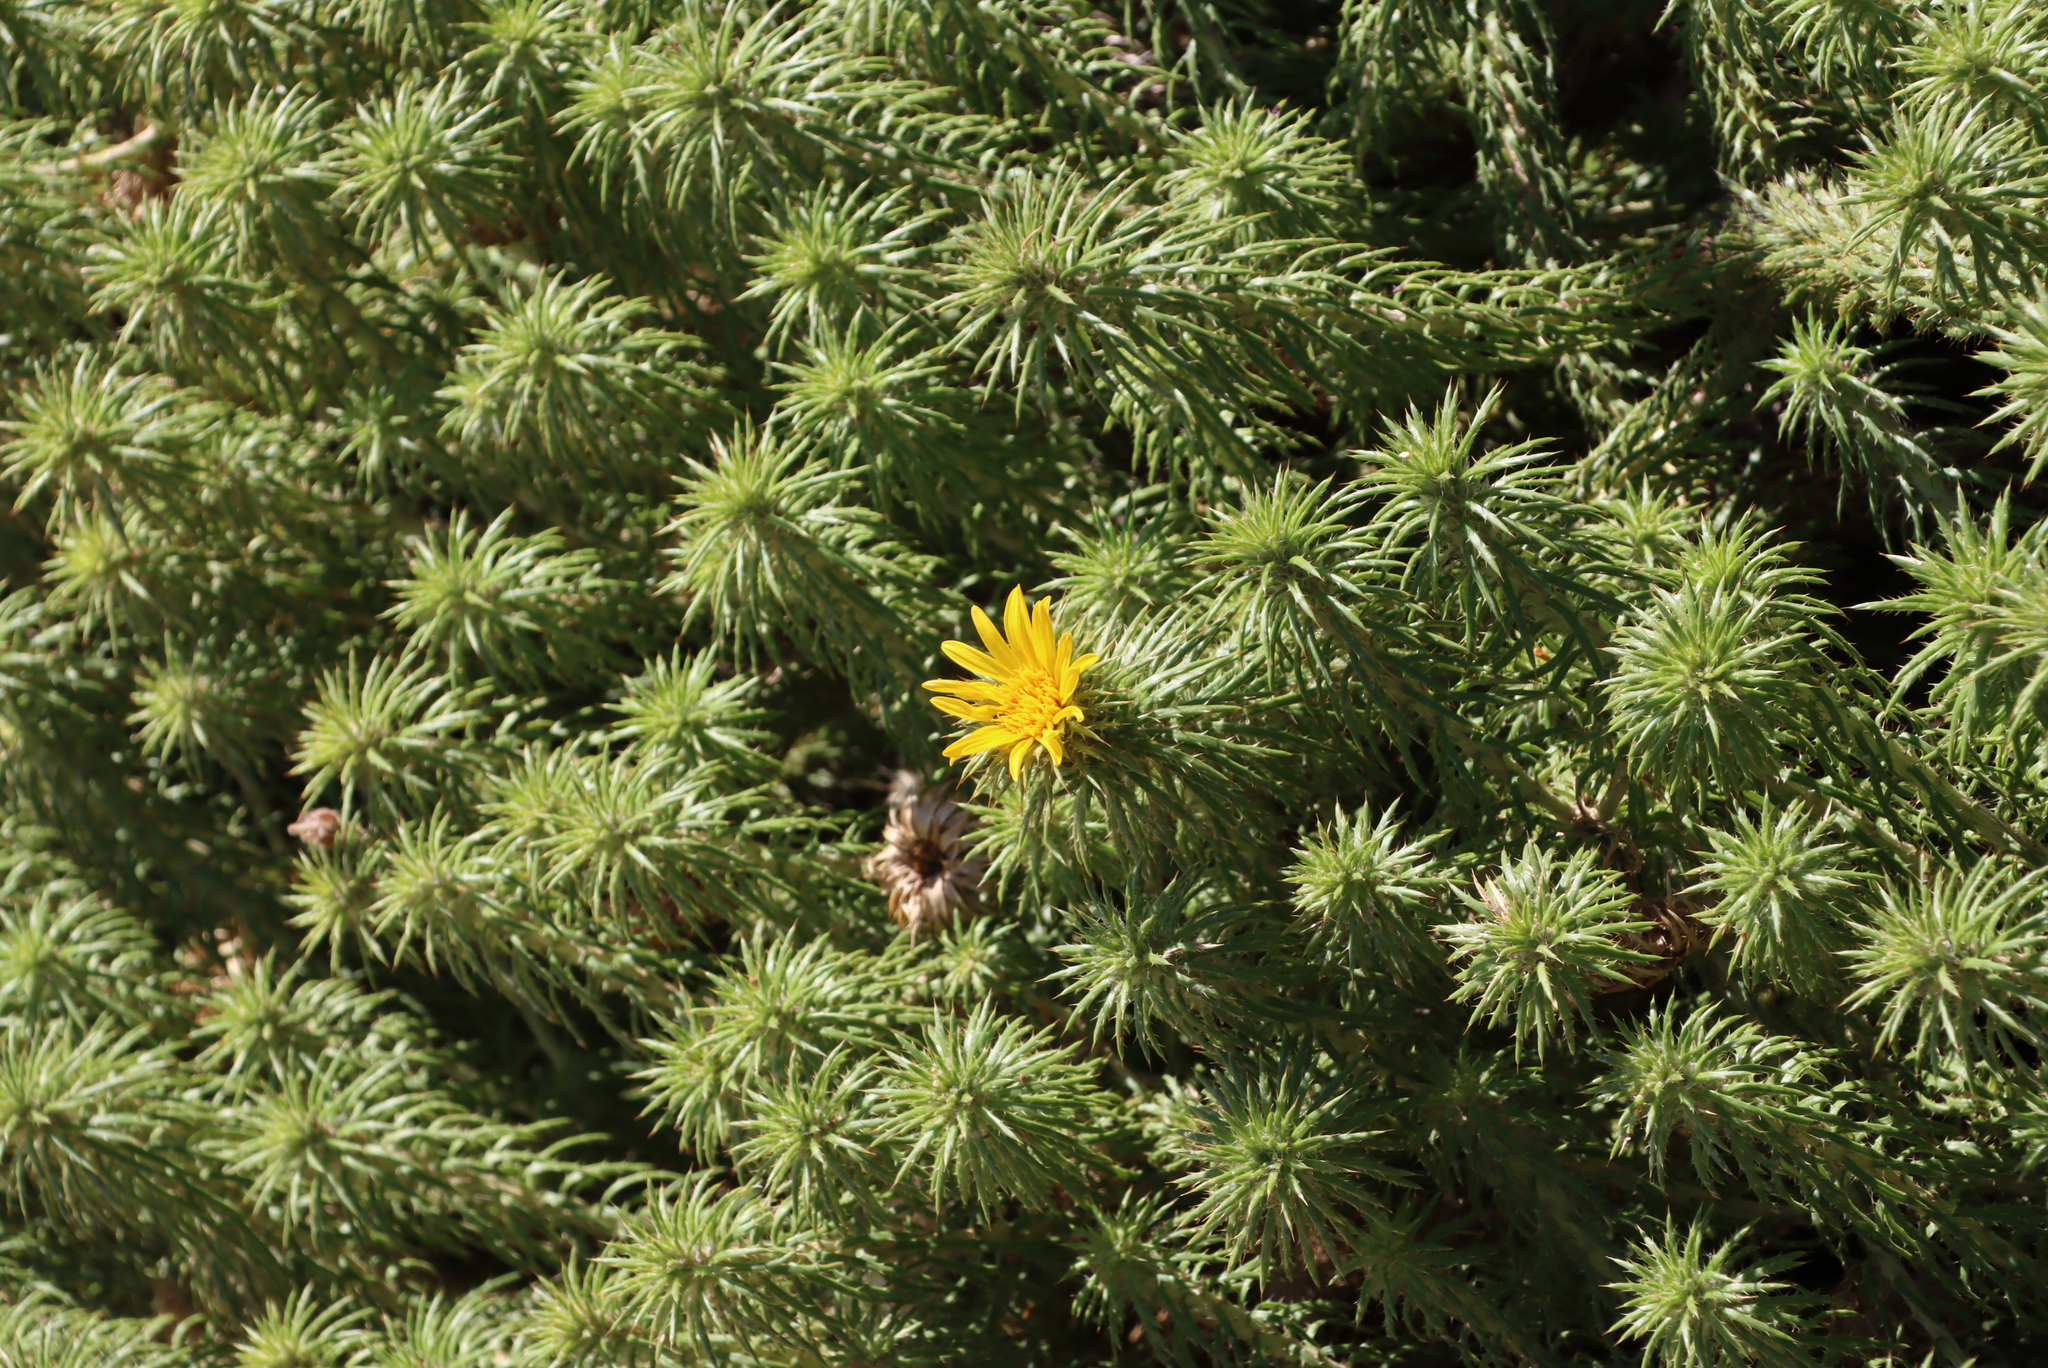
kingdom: Plantae
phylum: Tracheophyta
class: Magnoliopsida
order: Asterales
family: Asteraceae
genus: Cullumia
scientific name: Cullumia squarrosa
